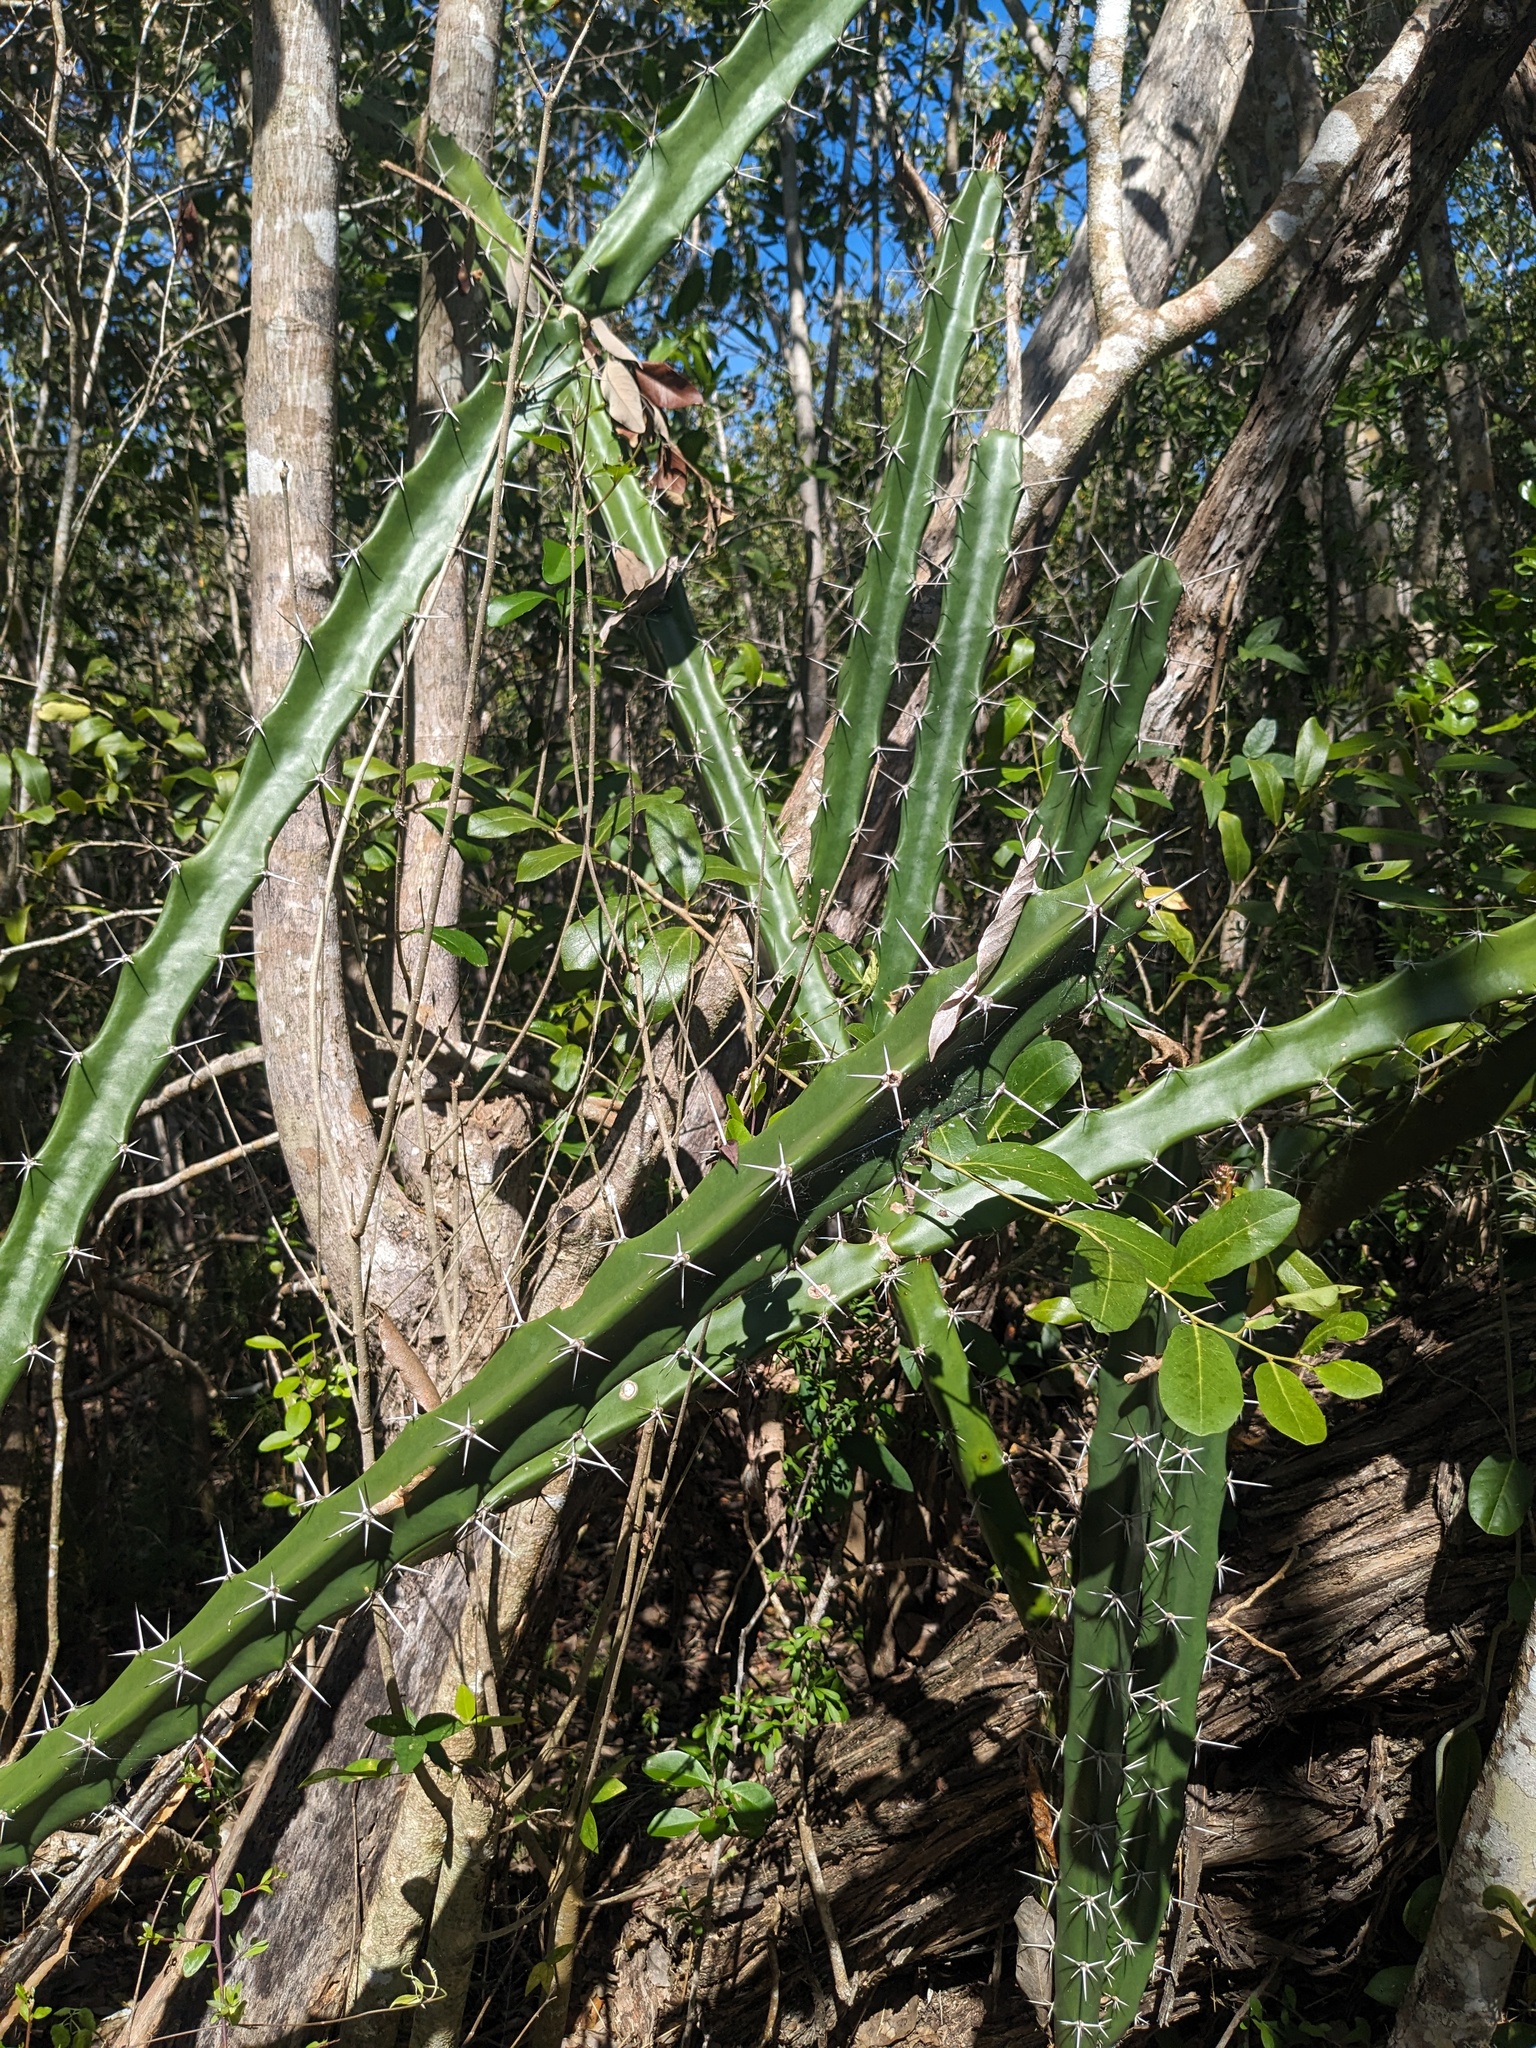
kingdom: Plantae
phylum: Tracheophyta
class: Magnoliopsida
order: Caryophyllales
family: Cactaceae
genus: Acanthocereus
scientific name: Acanthocereus tetragonus
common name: Triangle cactus
